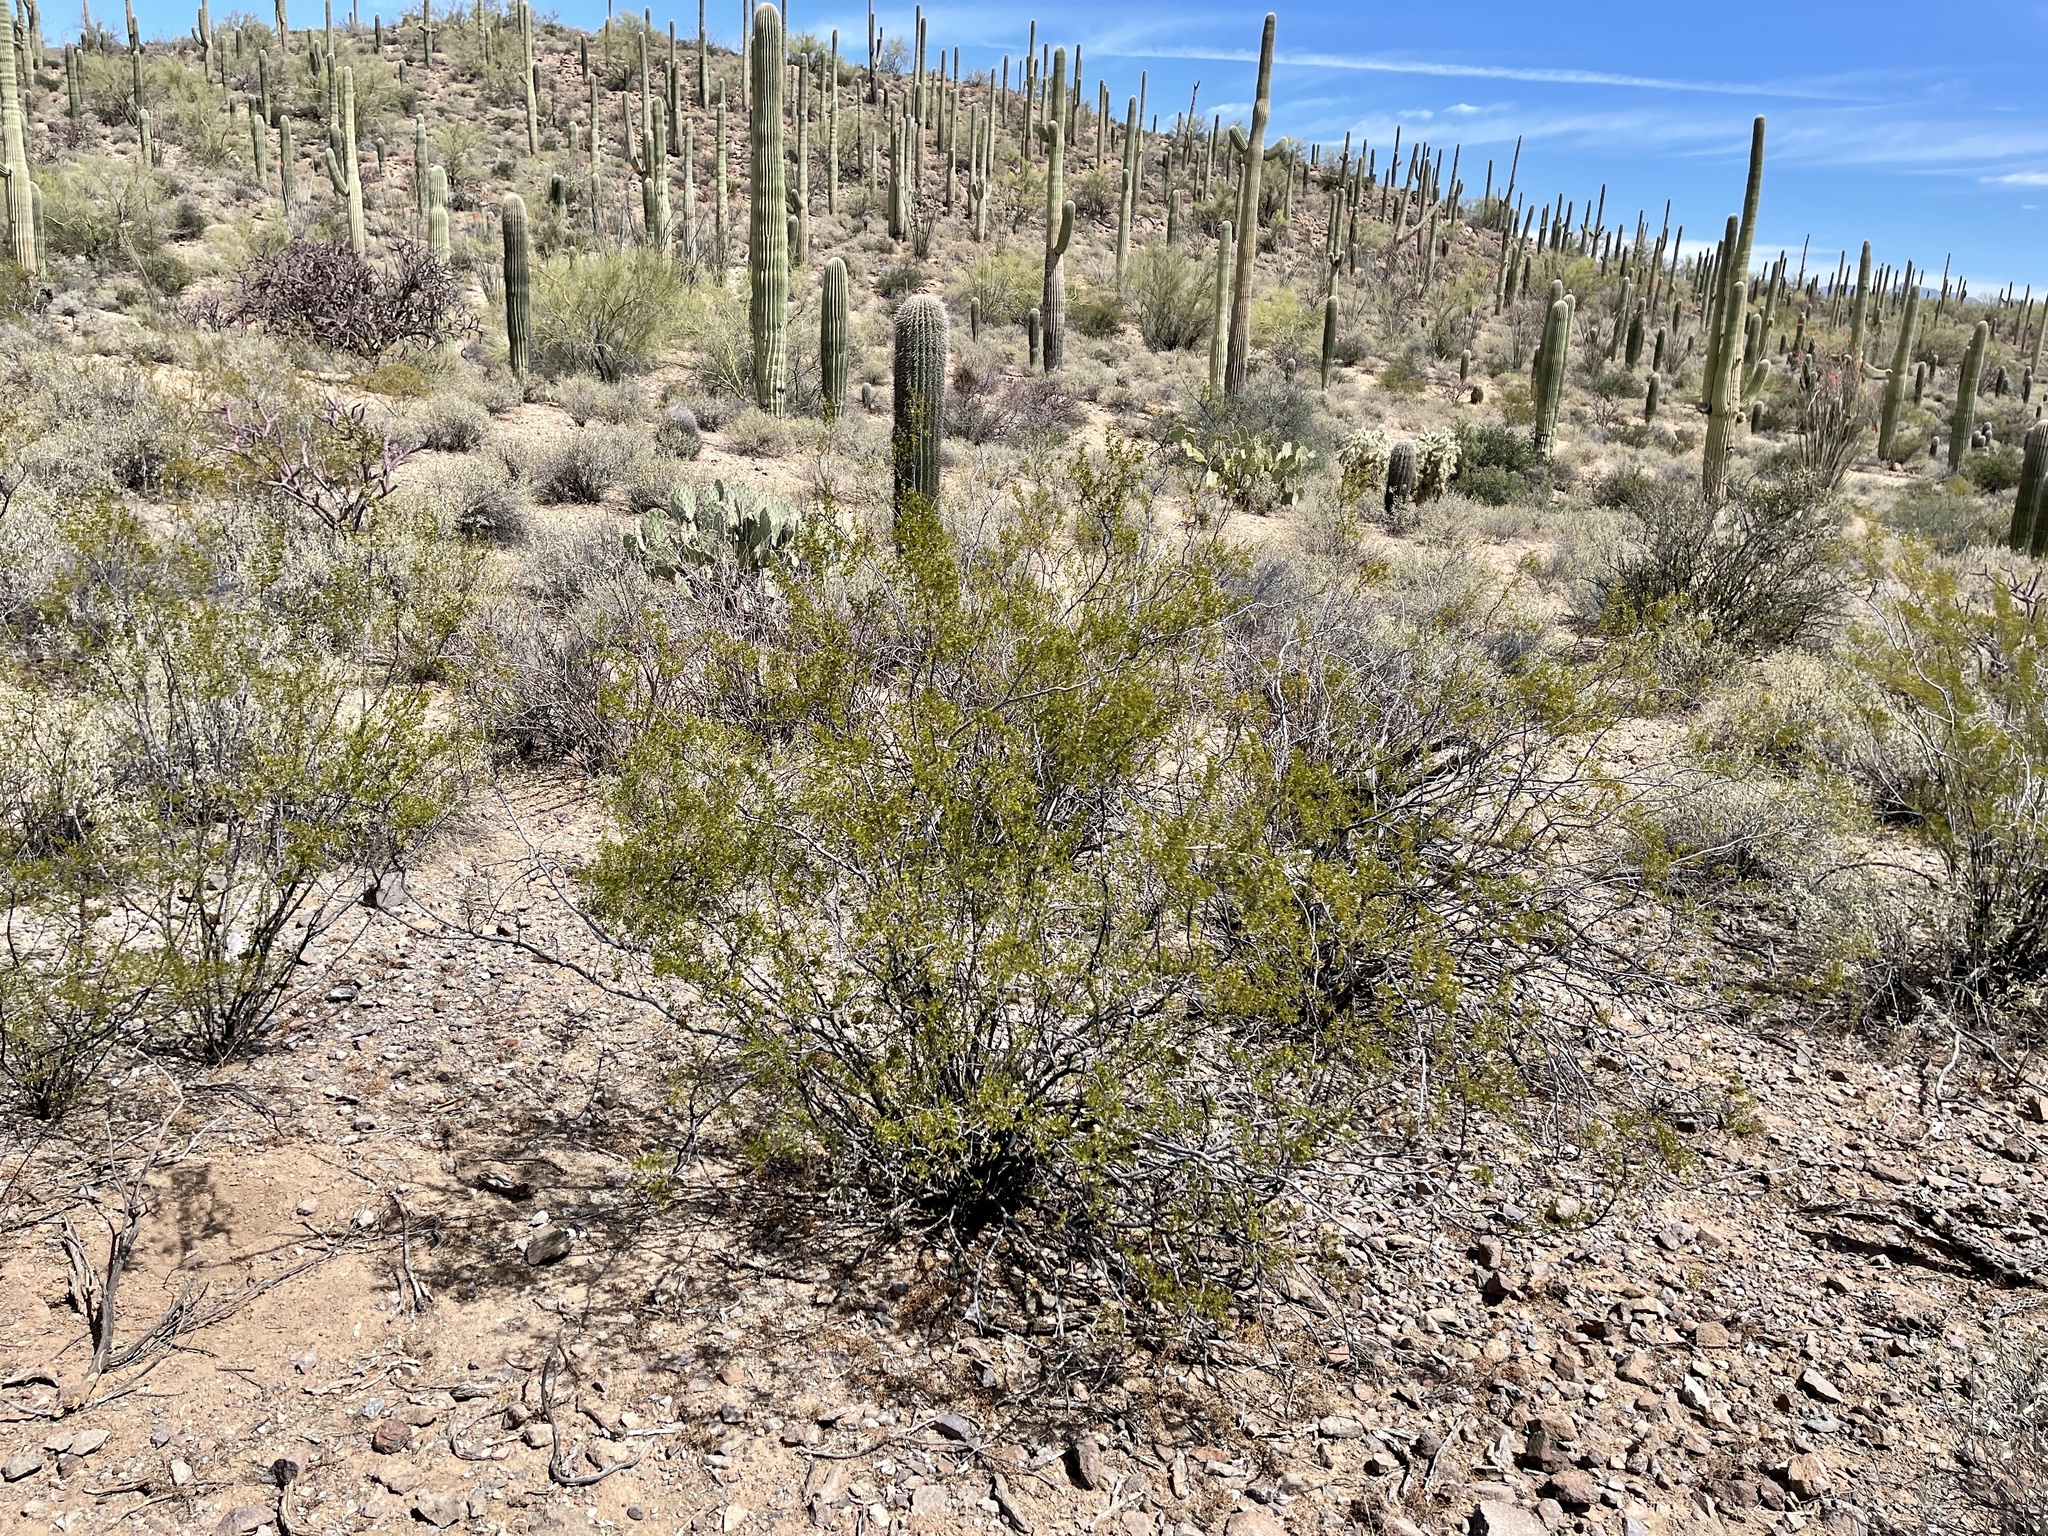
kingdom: Plantae
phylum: Tracheophyta
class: Magnoliopsida
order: Zygophyllales
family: Zygophyllaceae
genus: Larrea
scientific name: Larrea tridentata
